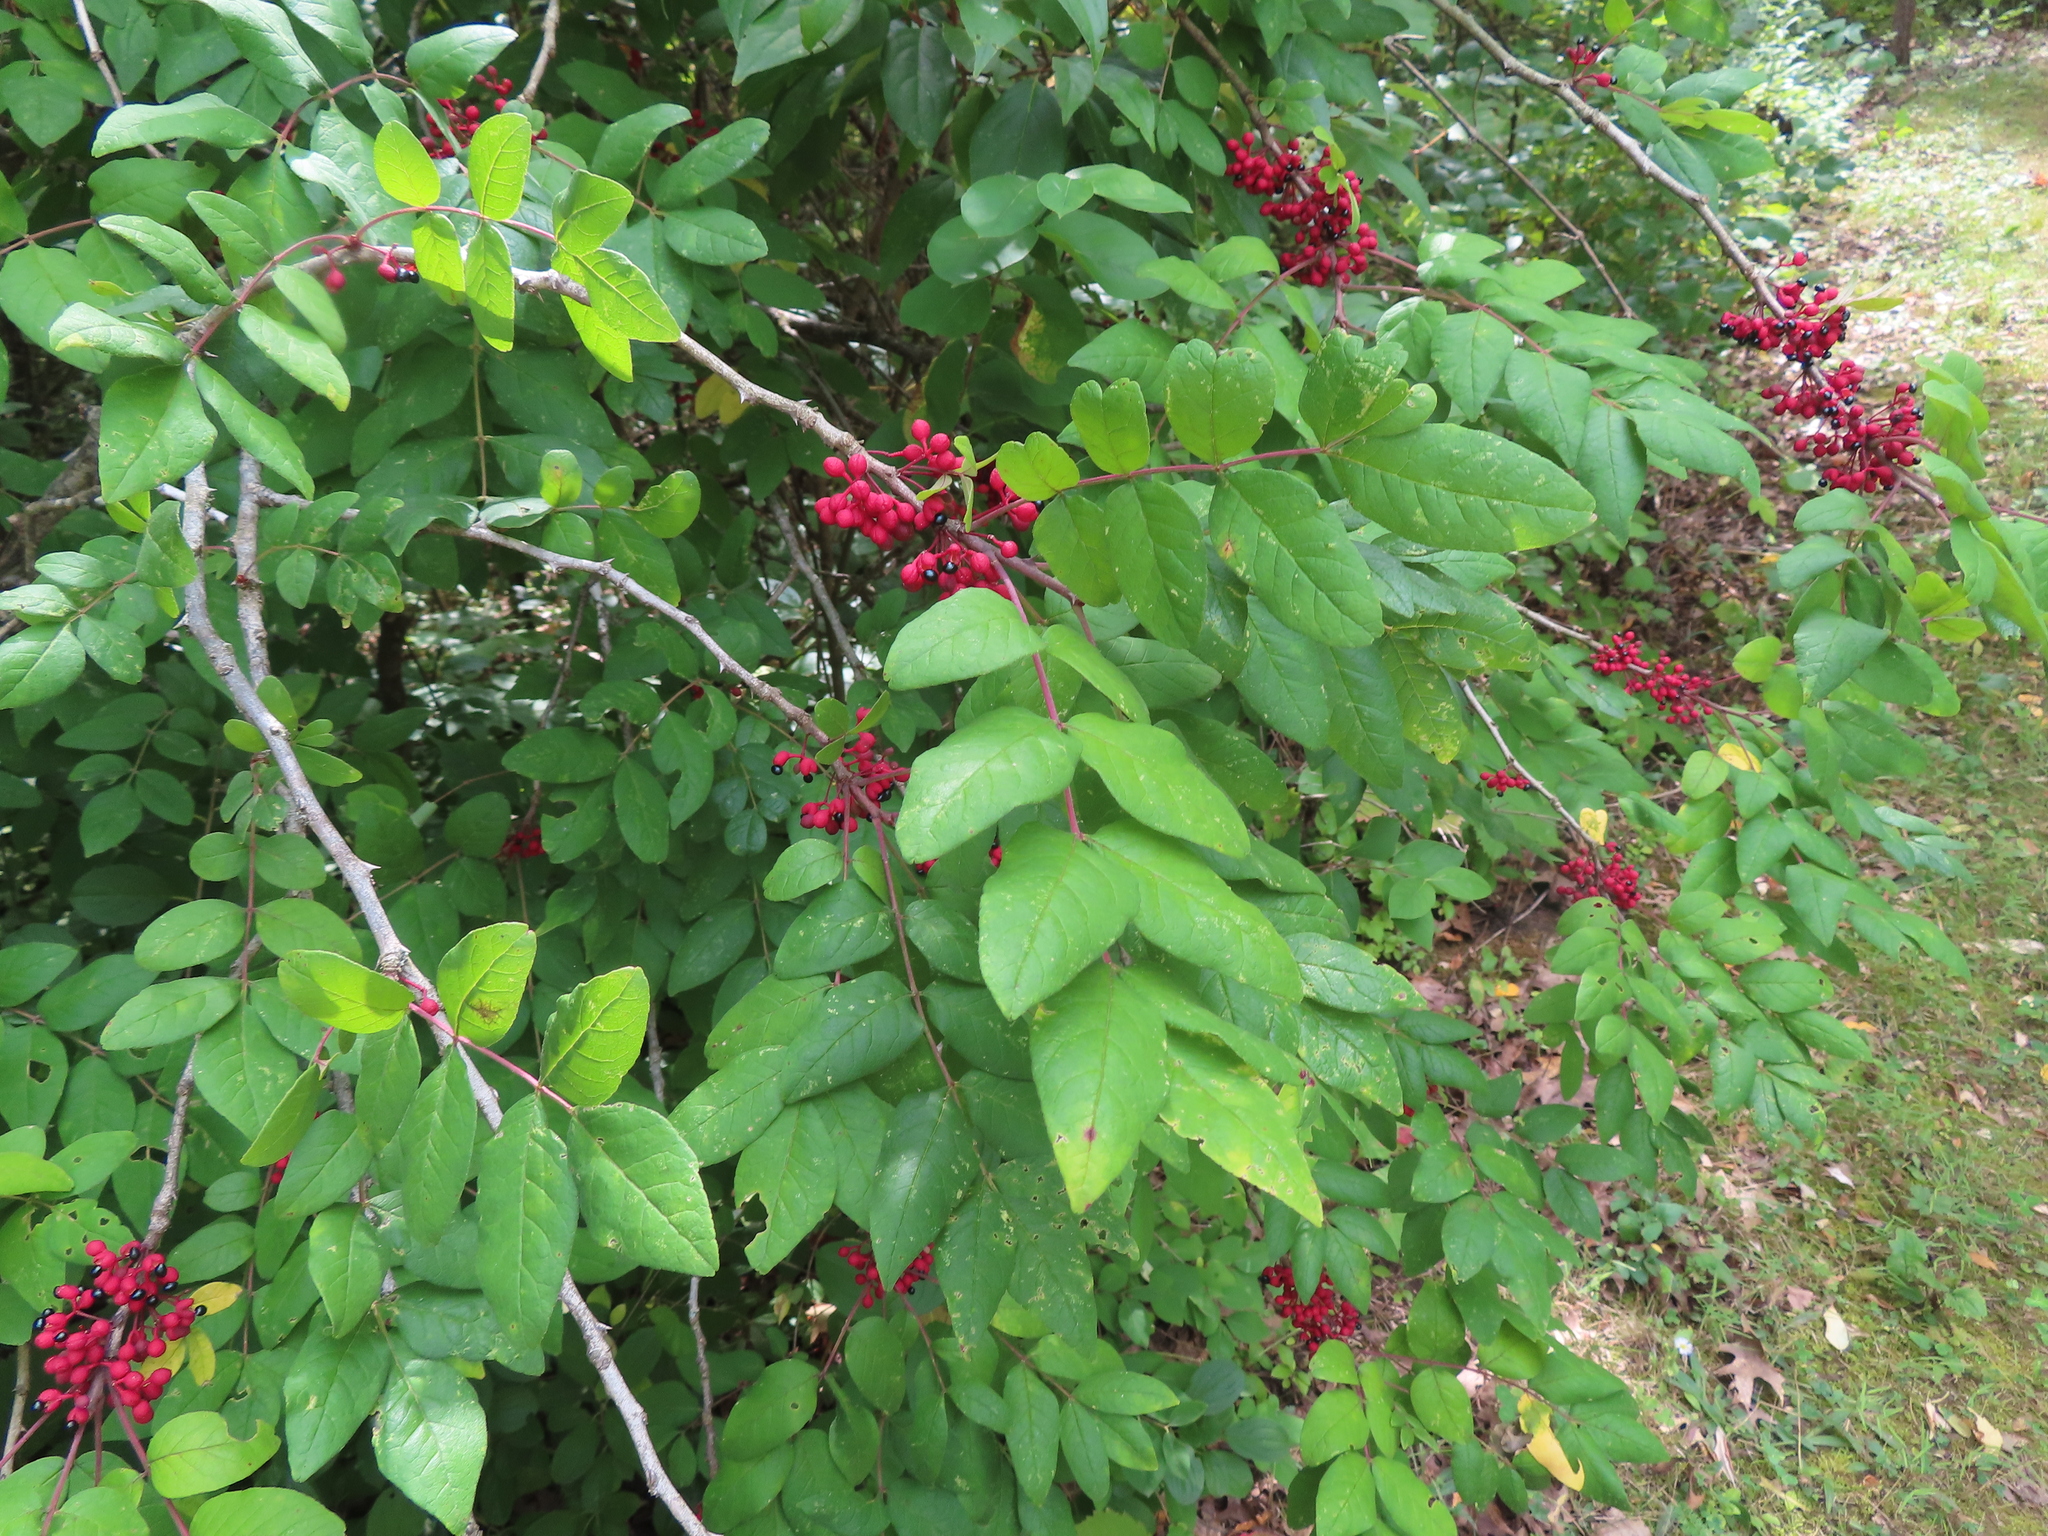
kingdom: Plantae
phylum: Tracheophyta
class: Magnoliopsida
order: Sapindales
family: Rutaceae
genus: Zanthoxylum
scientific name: Zanthoxylum americanum
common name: Northern prickly-ash
